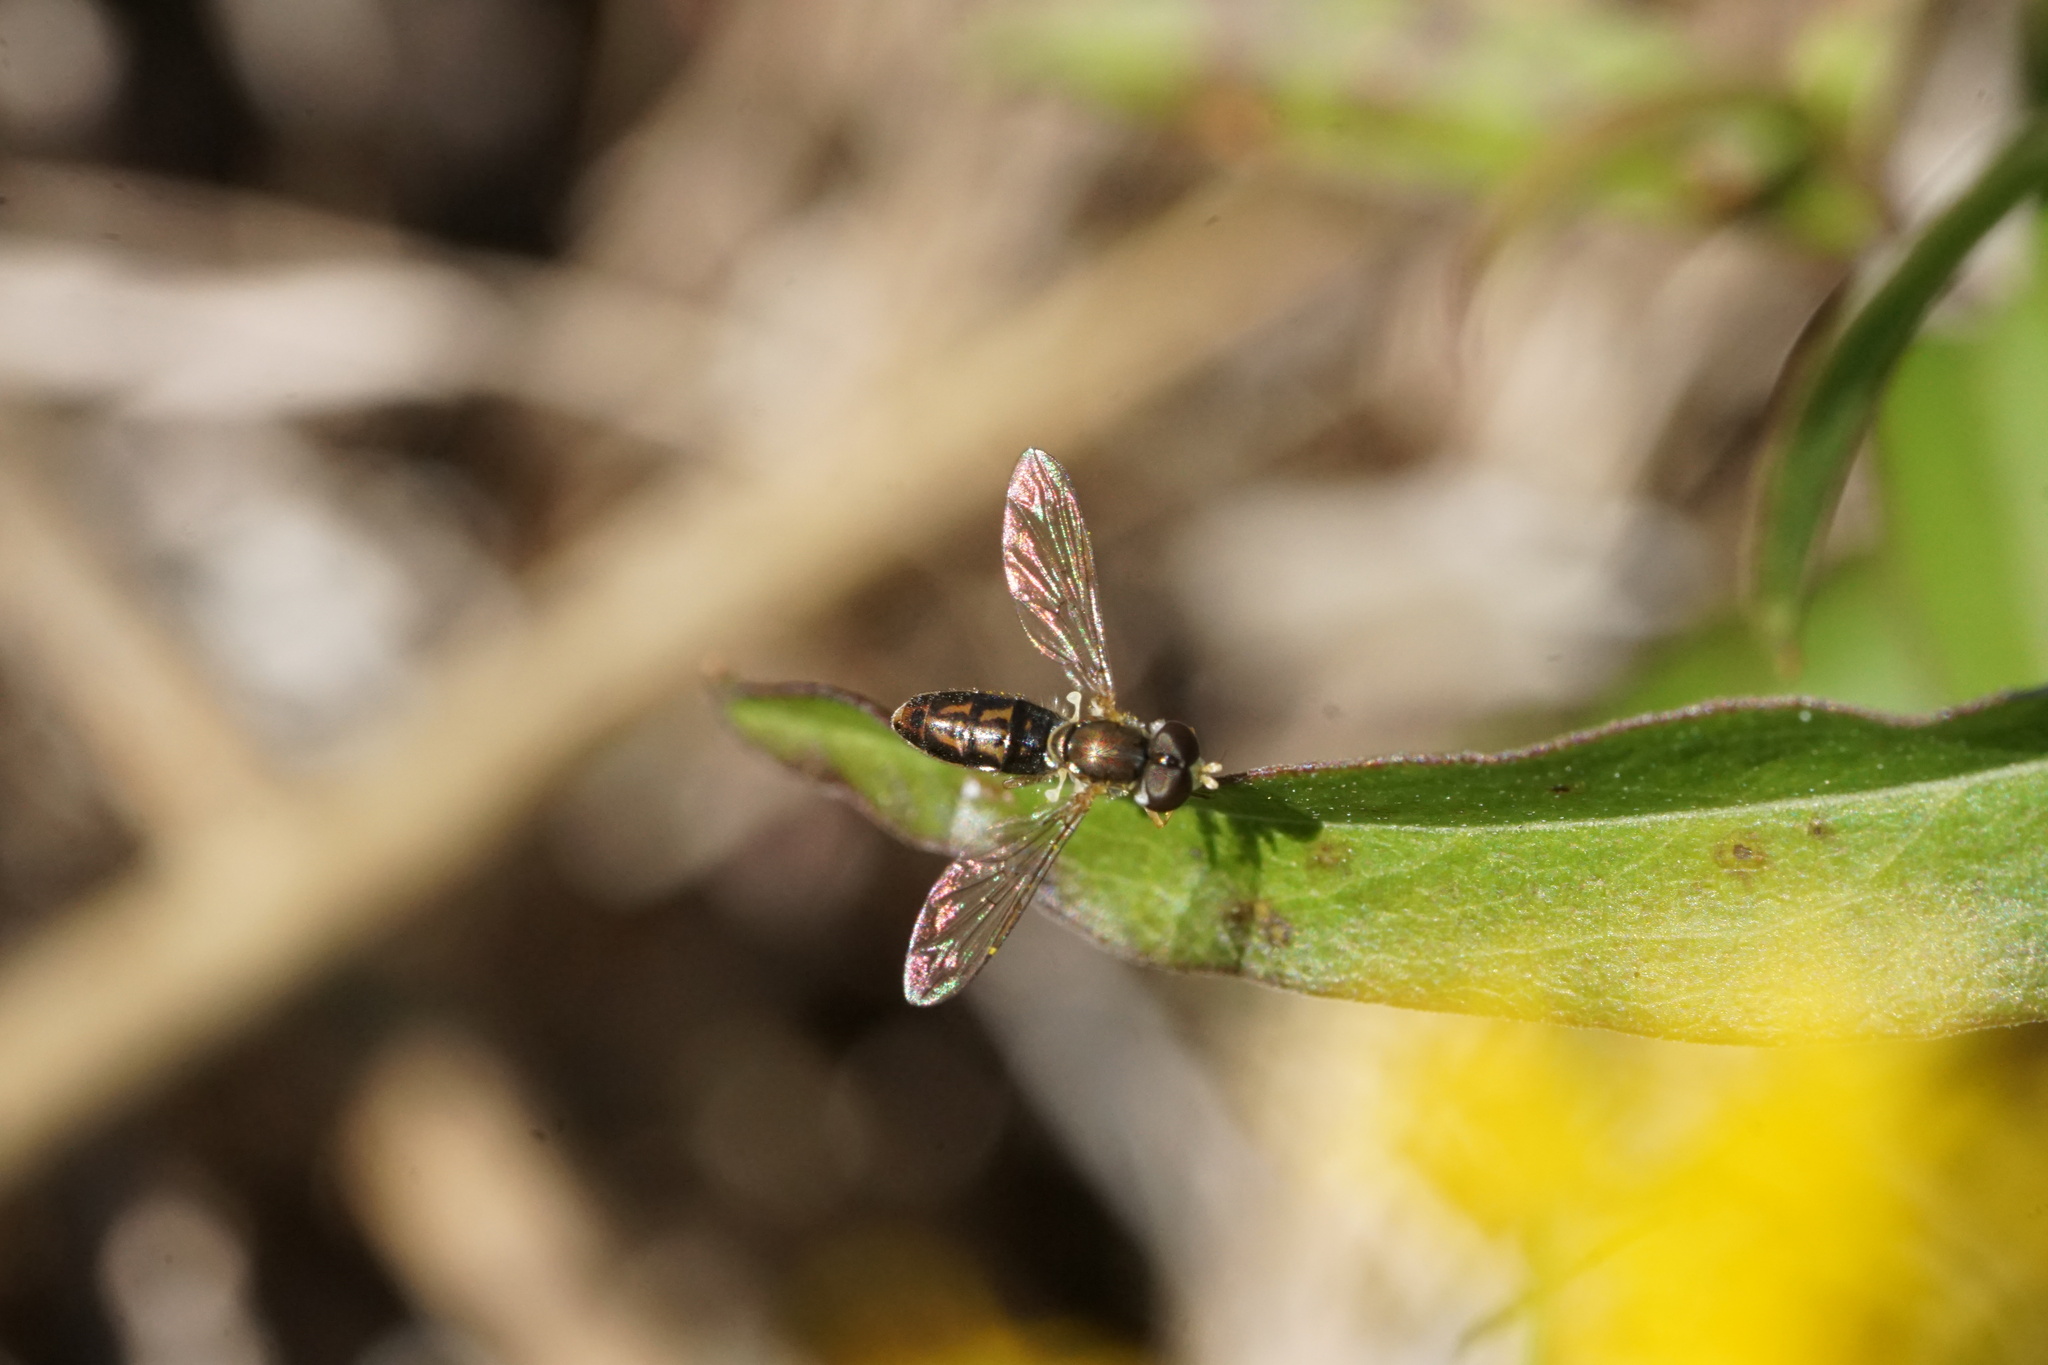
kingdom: Animalia
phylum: Arthropoda
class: Insecta
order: Diptera
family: Syrphidae
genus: Toxomerus
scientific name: Toxomerus marginatus
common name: Syrphid fly
